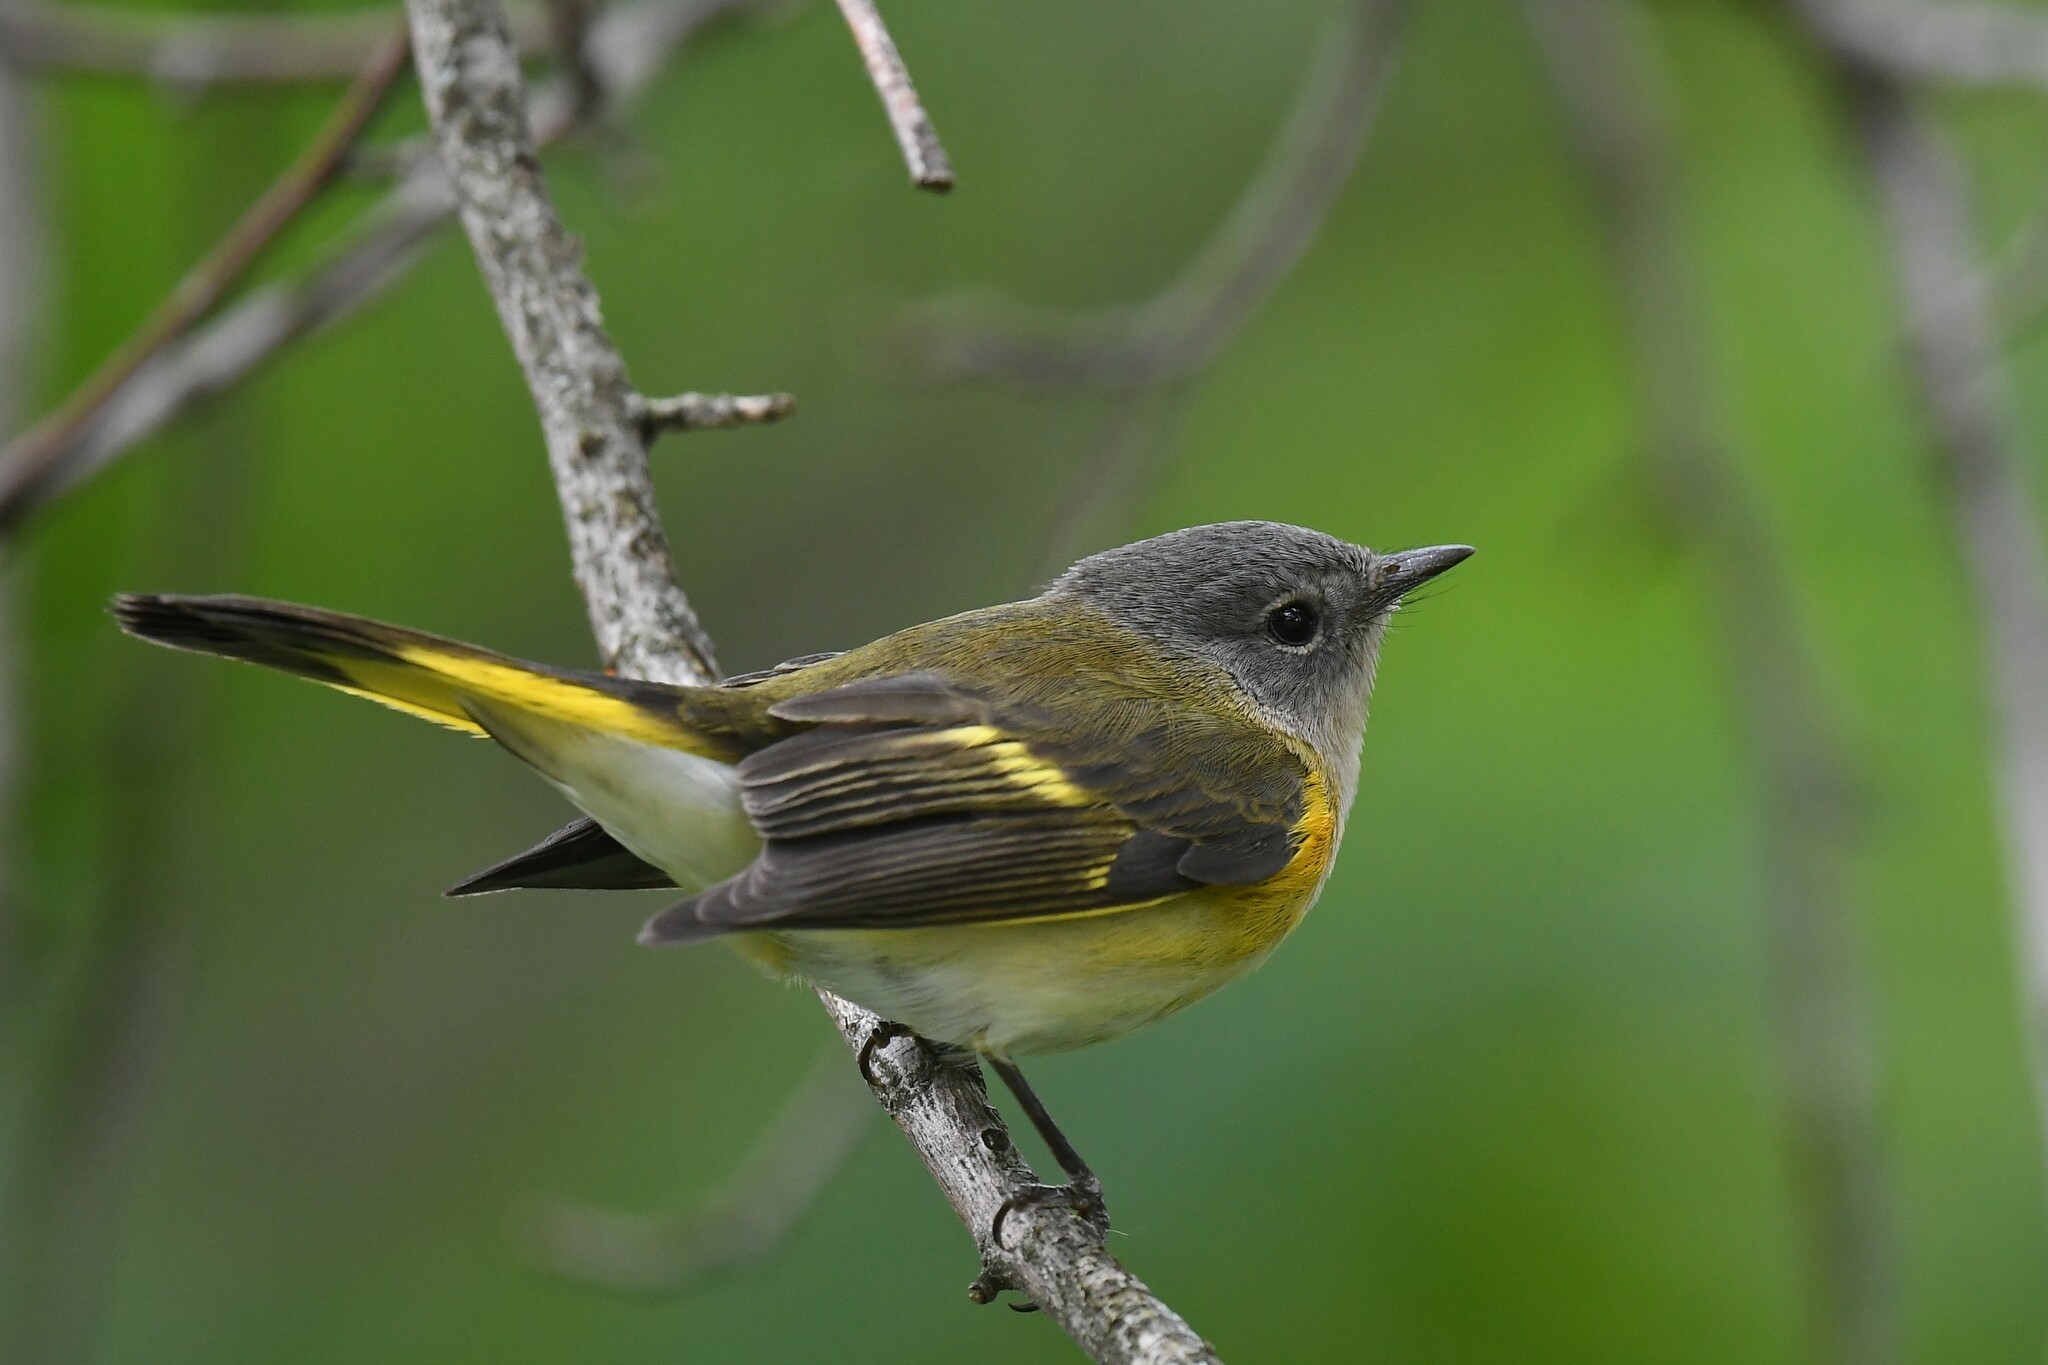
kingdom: Animalia
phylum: Chordata
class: Aves
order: Passeriformes
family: Parulidae
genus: Setophaga
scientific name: Setophaga ruticilla
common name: American redstart
